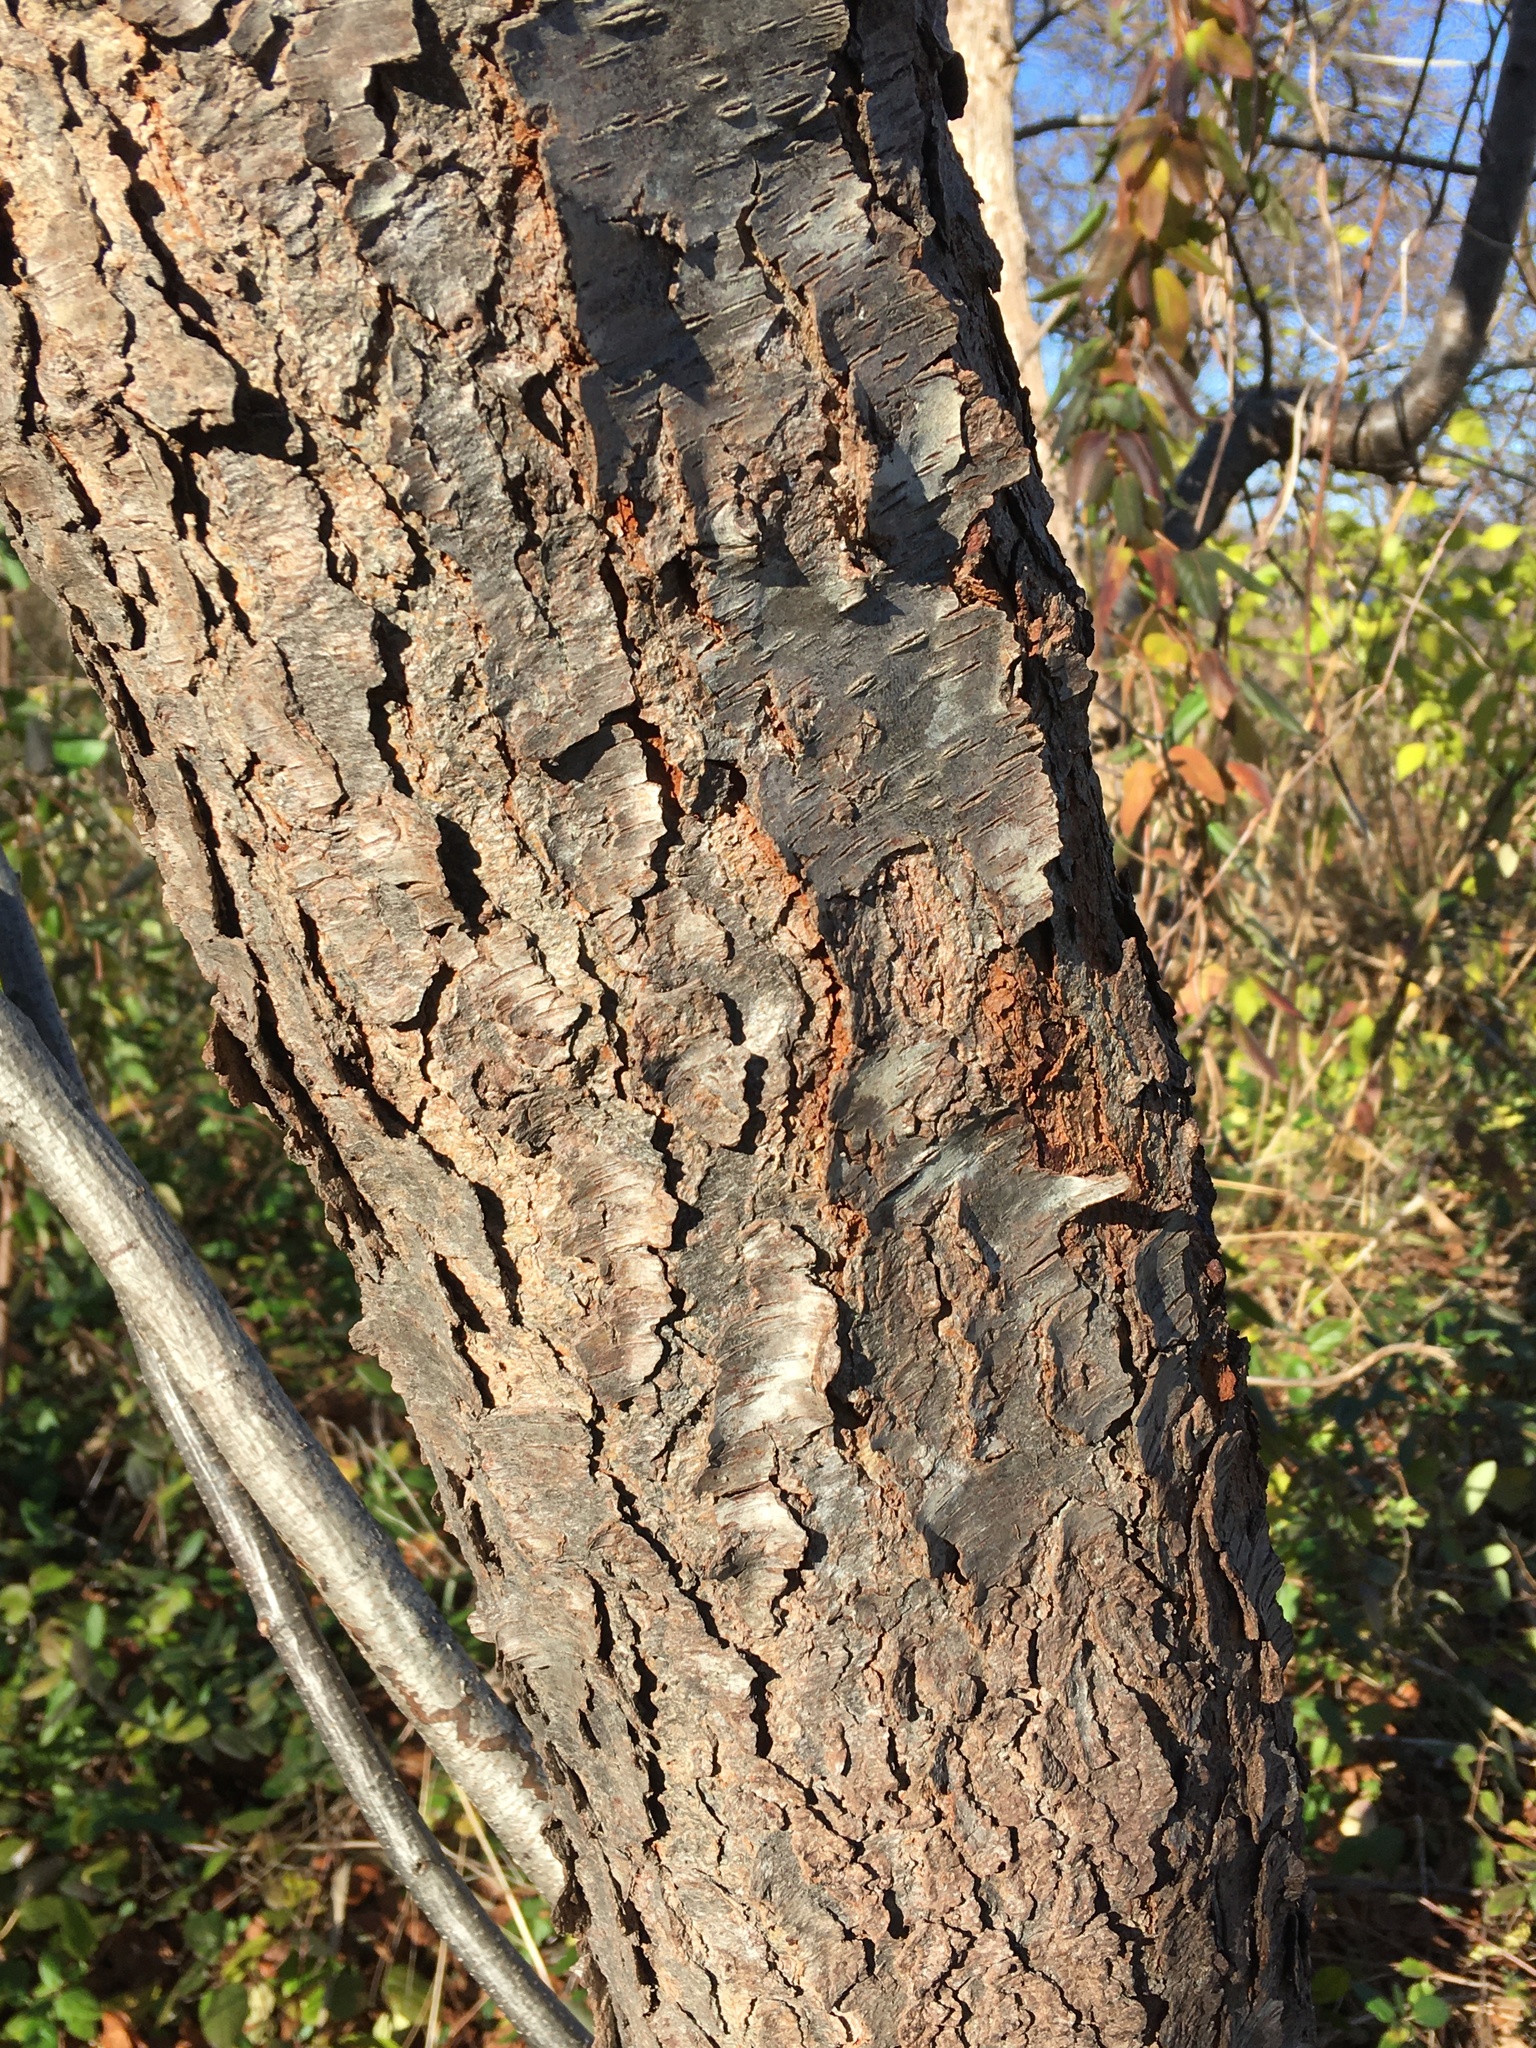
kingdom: Plantae
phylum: Tracheophyta
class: Magnoliopsida
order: Rosales
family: Rosaceae
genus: Prunus
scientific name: Prunus serotina
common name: Black cherry
